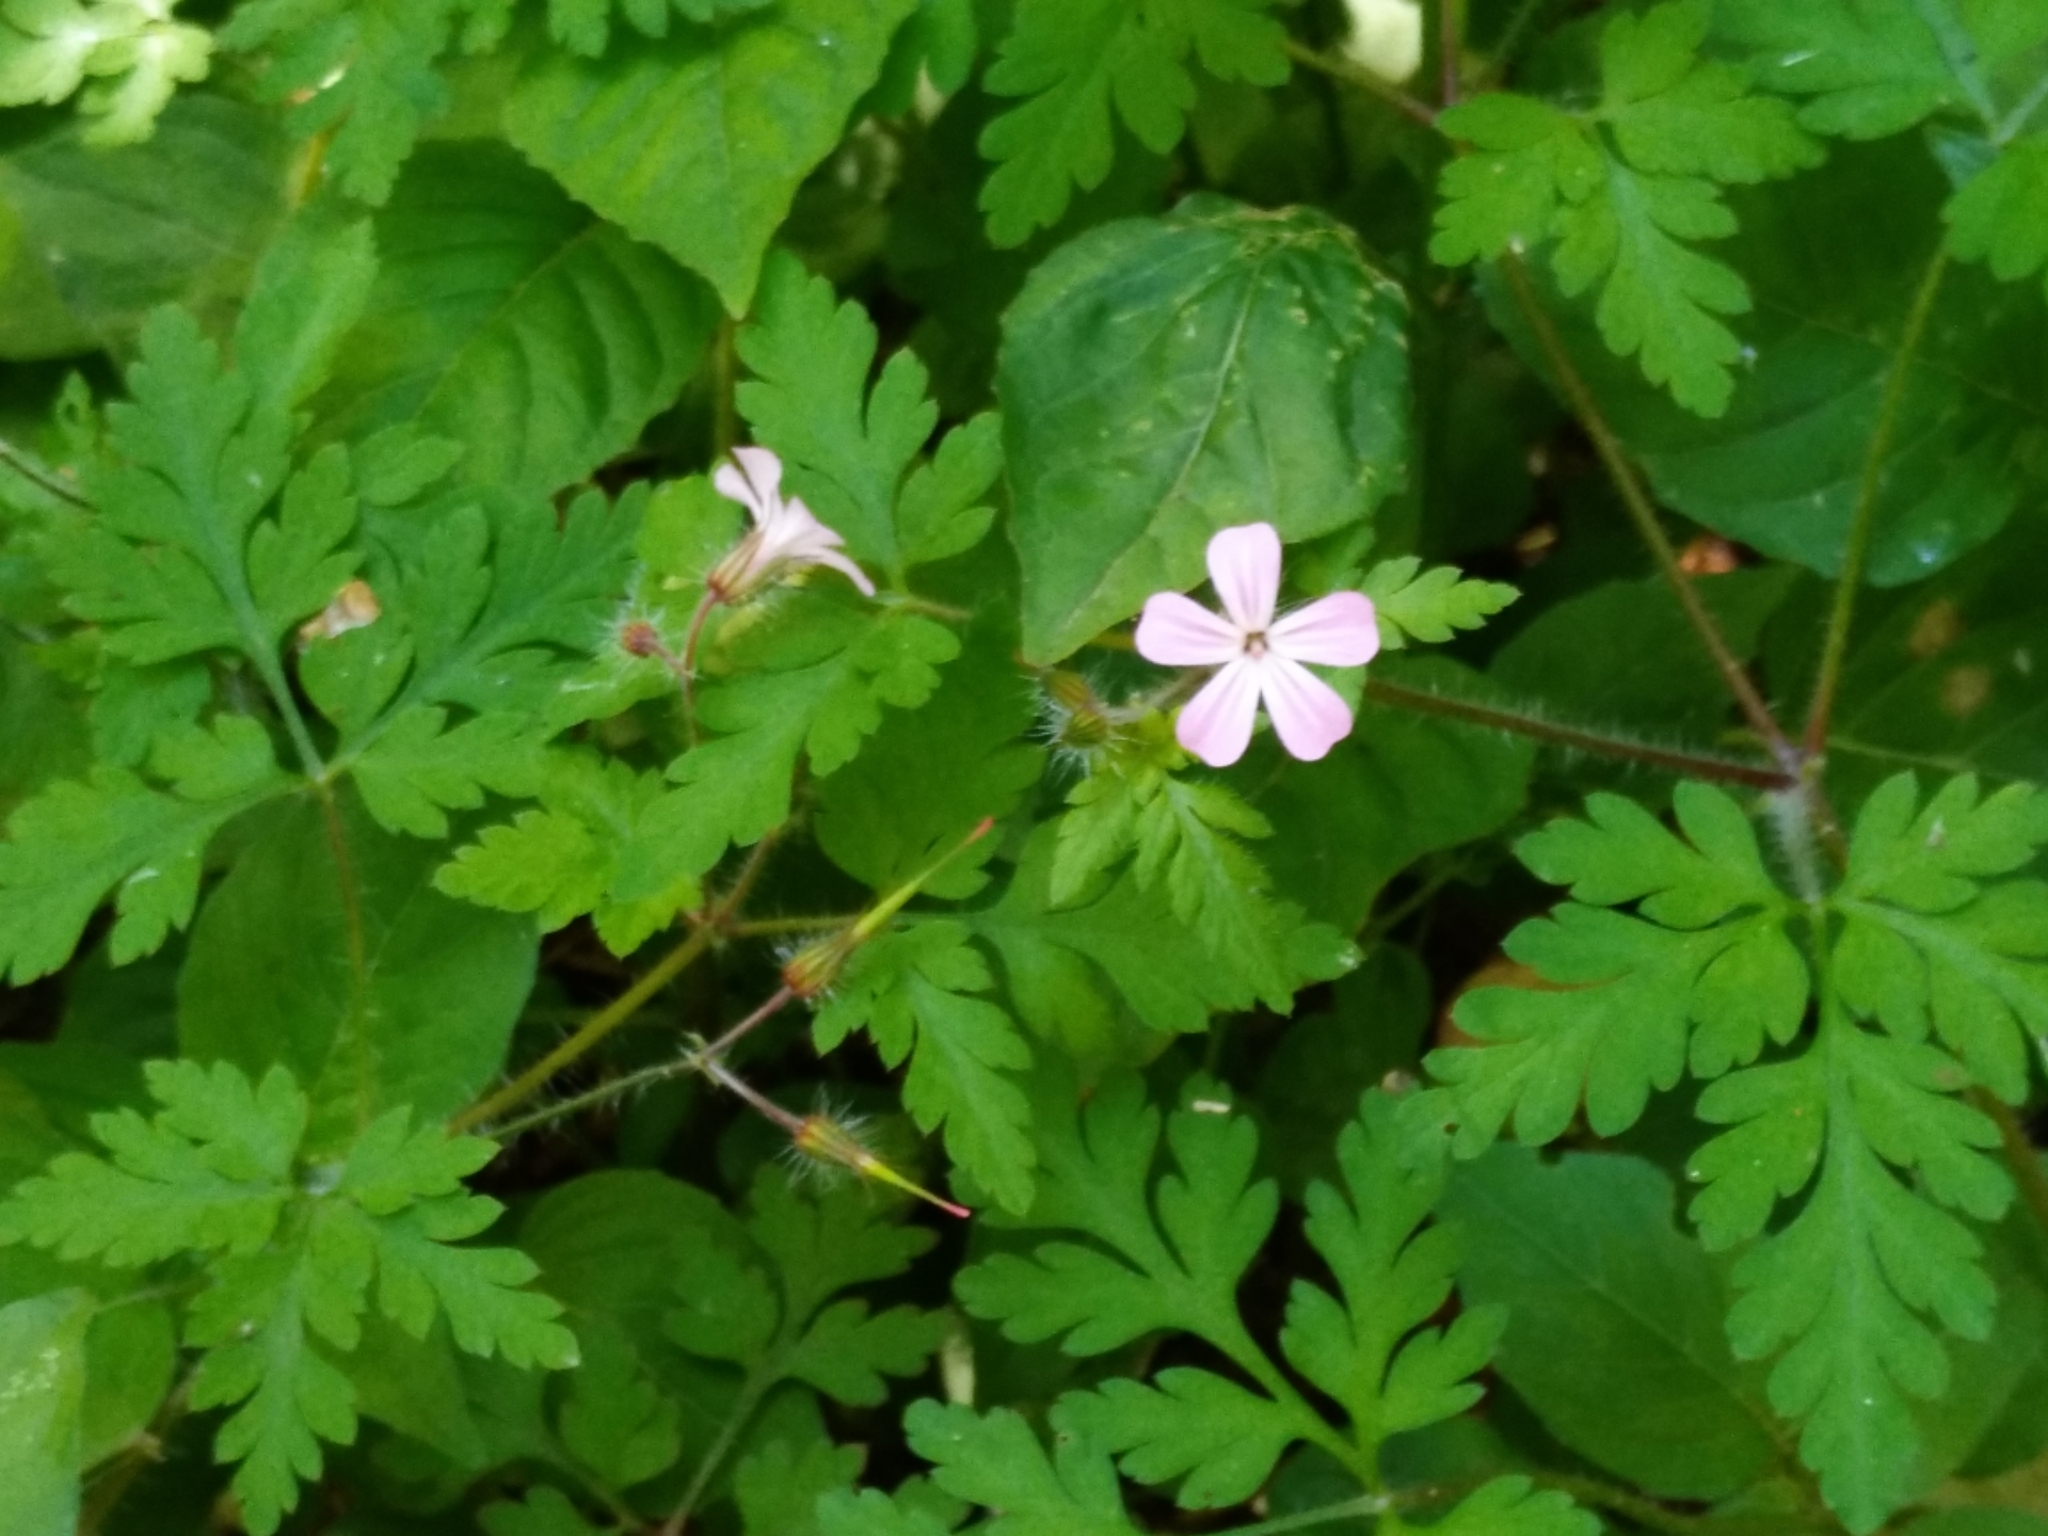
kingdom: Plantae
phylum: Tracheophyta
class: Magnoliopsida
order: Geraniales
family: Geraniaceae
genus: Geranium
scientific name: Geranium robertianum
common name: Herb-robert
